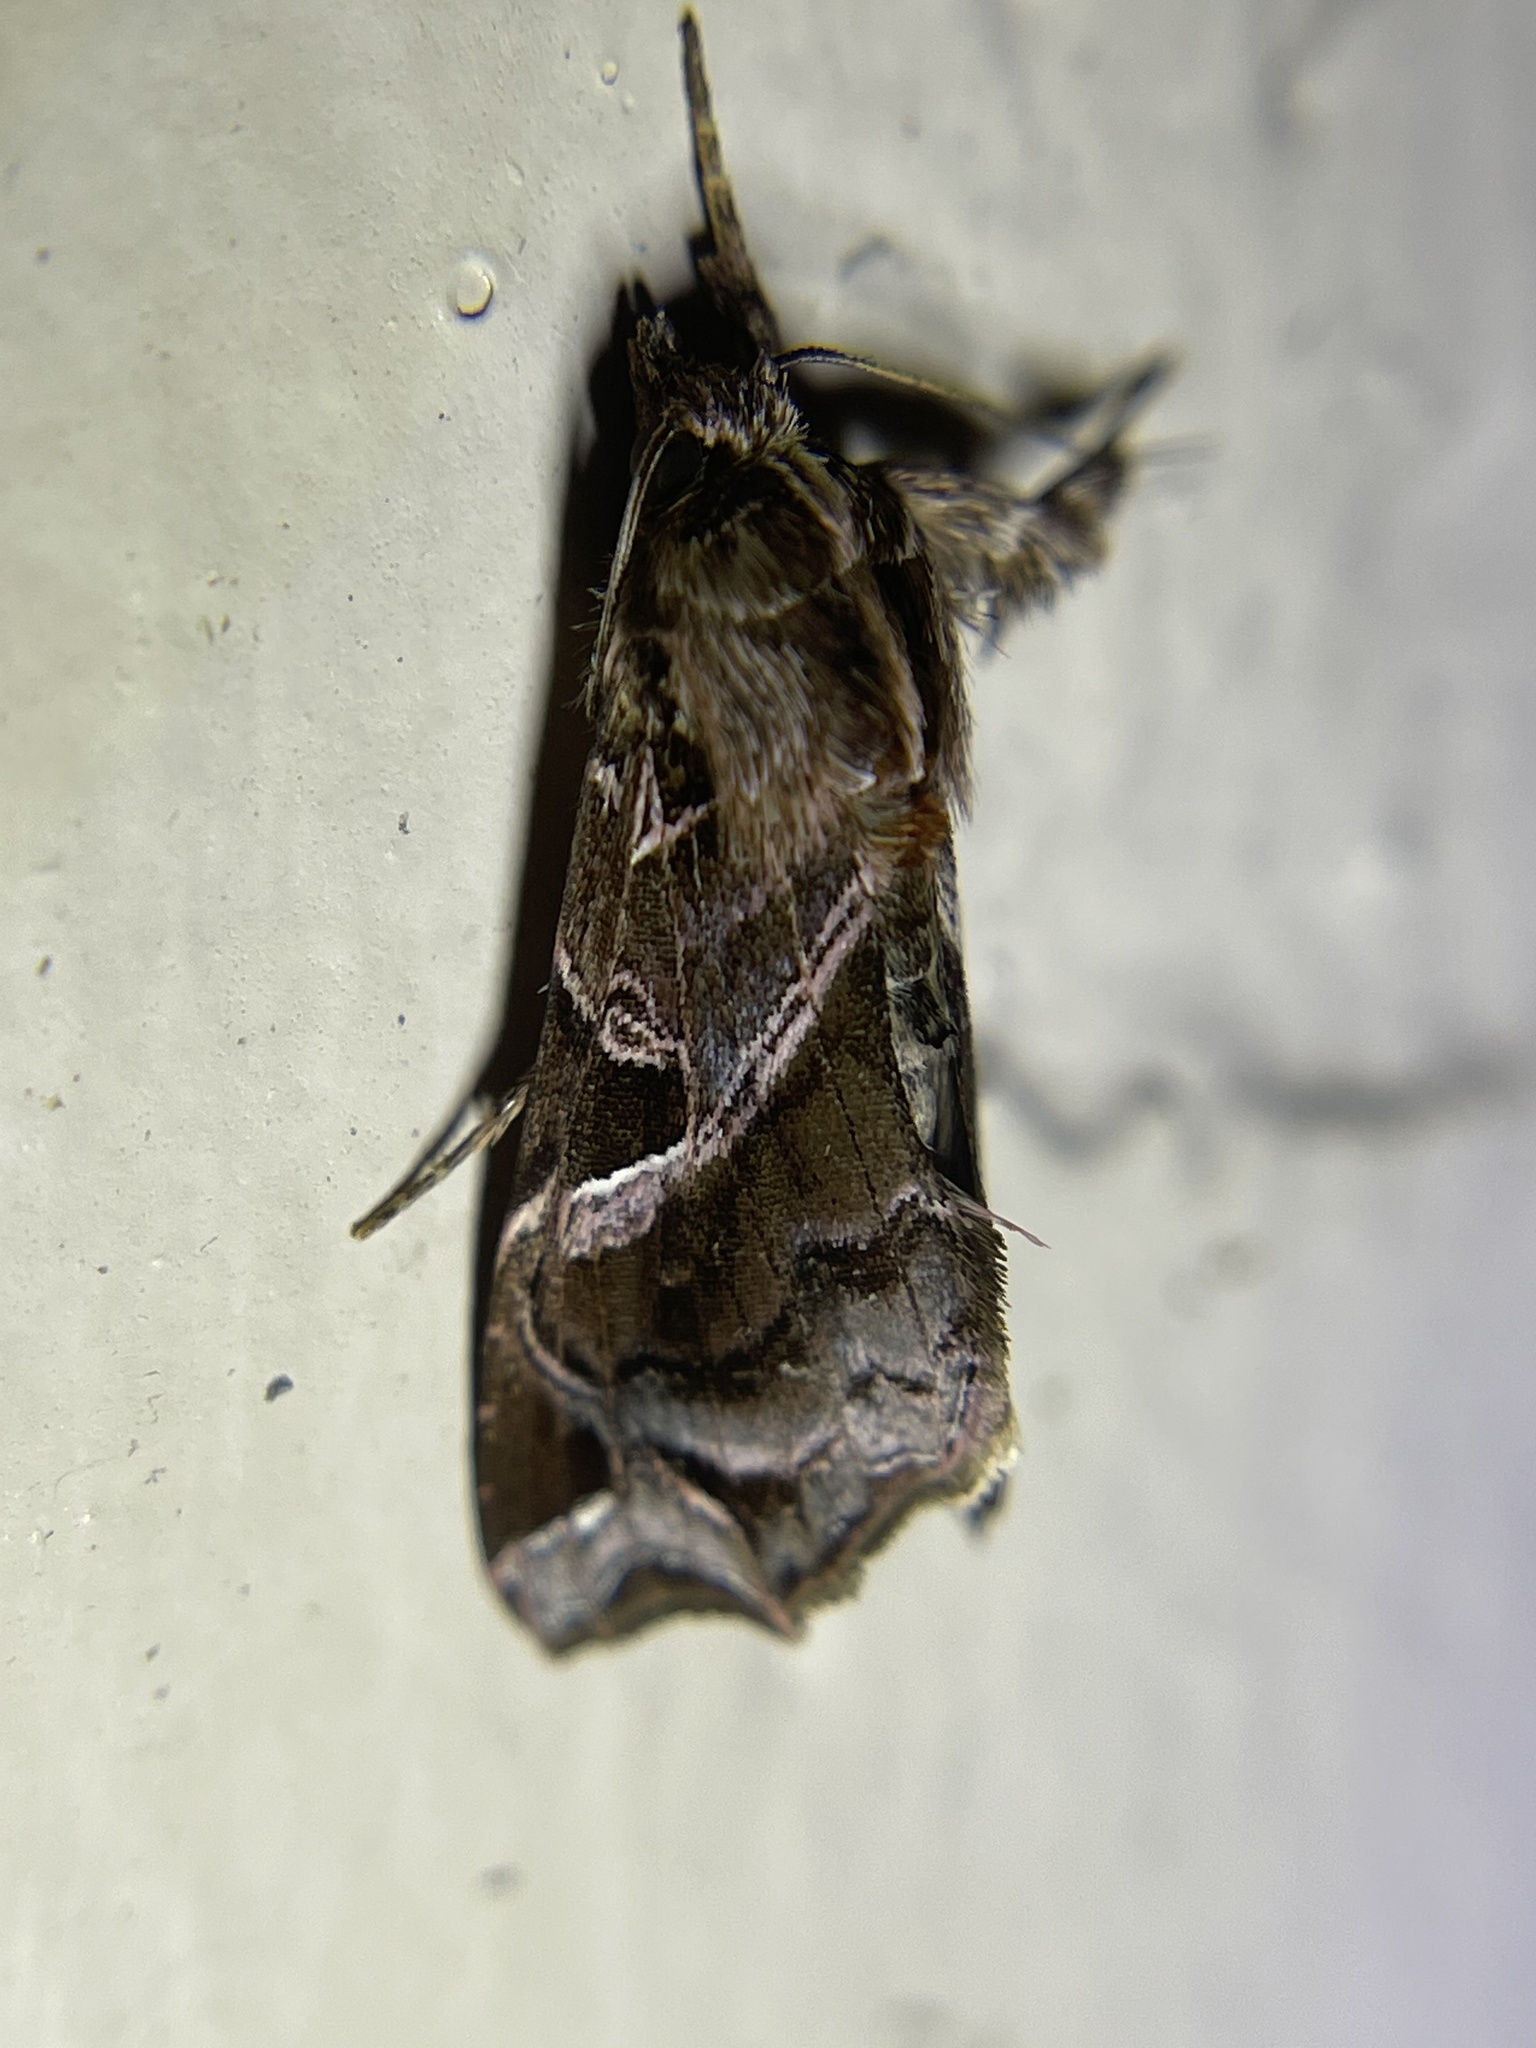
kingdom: Animalia
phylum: Arthropoda
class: Insecta
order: Lepidoptera
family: Noctuidae
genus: Callopistria
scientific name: Callopistria floridensis
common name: Florida fern moth
